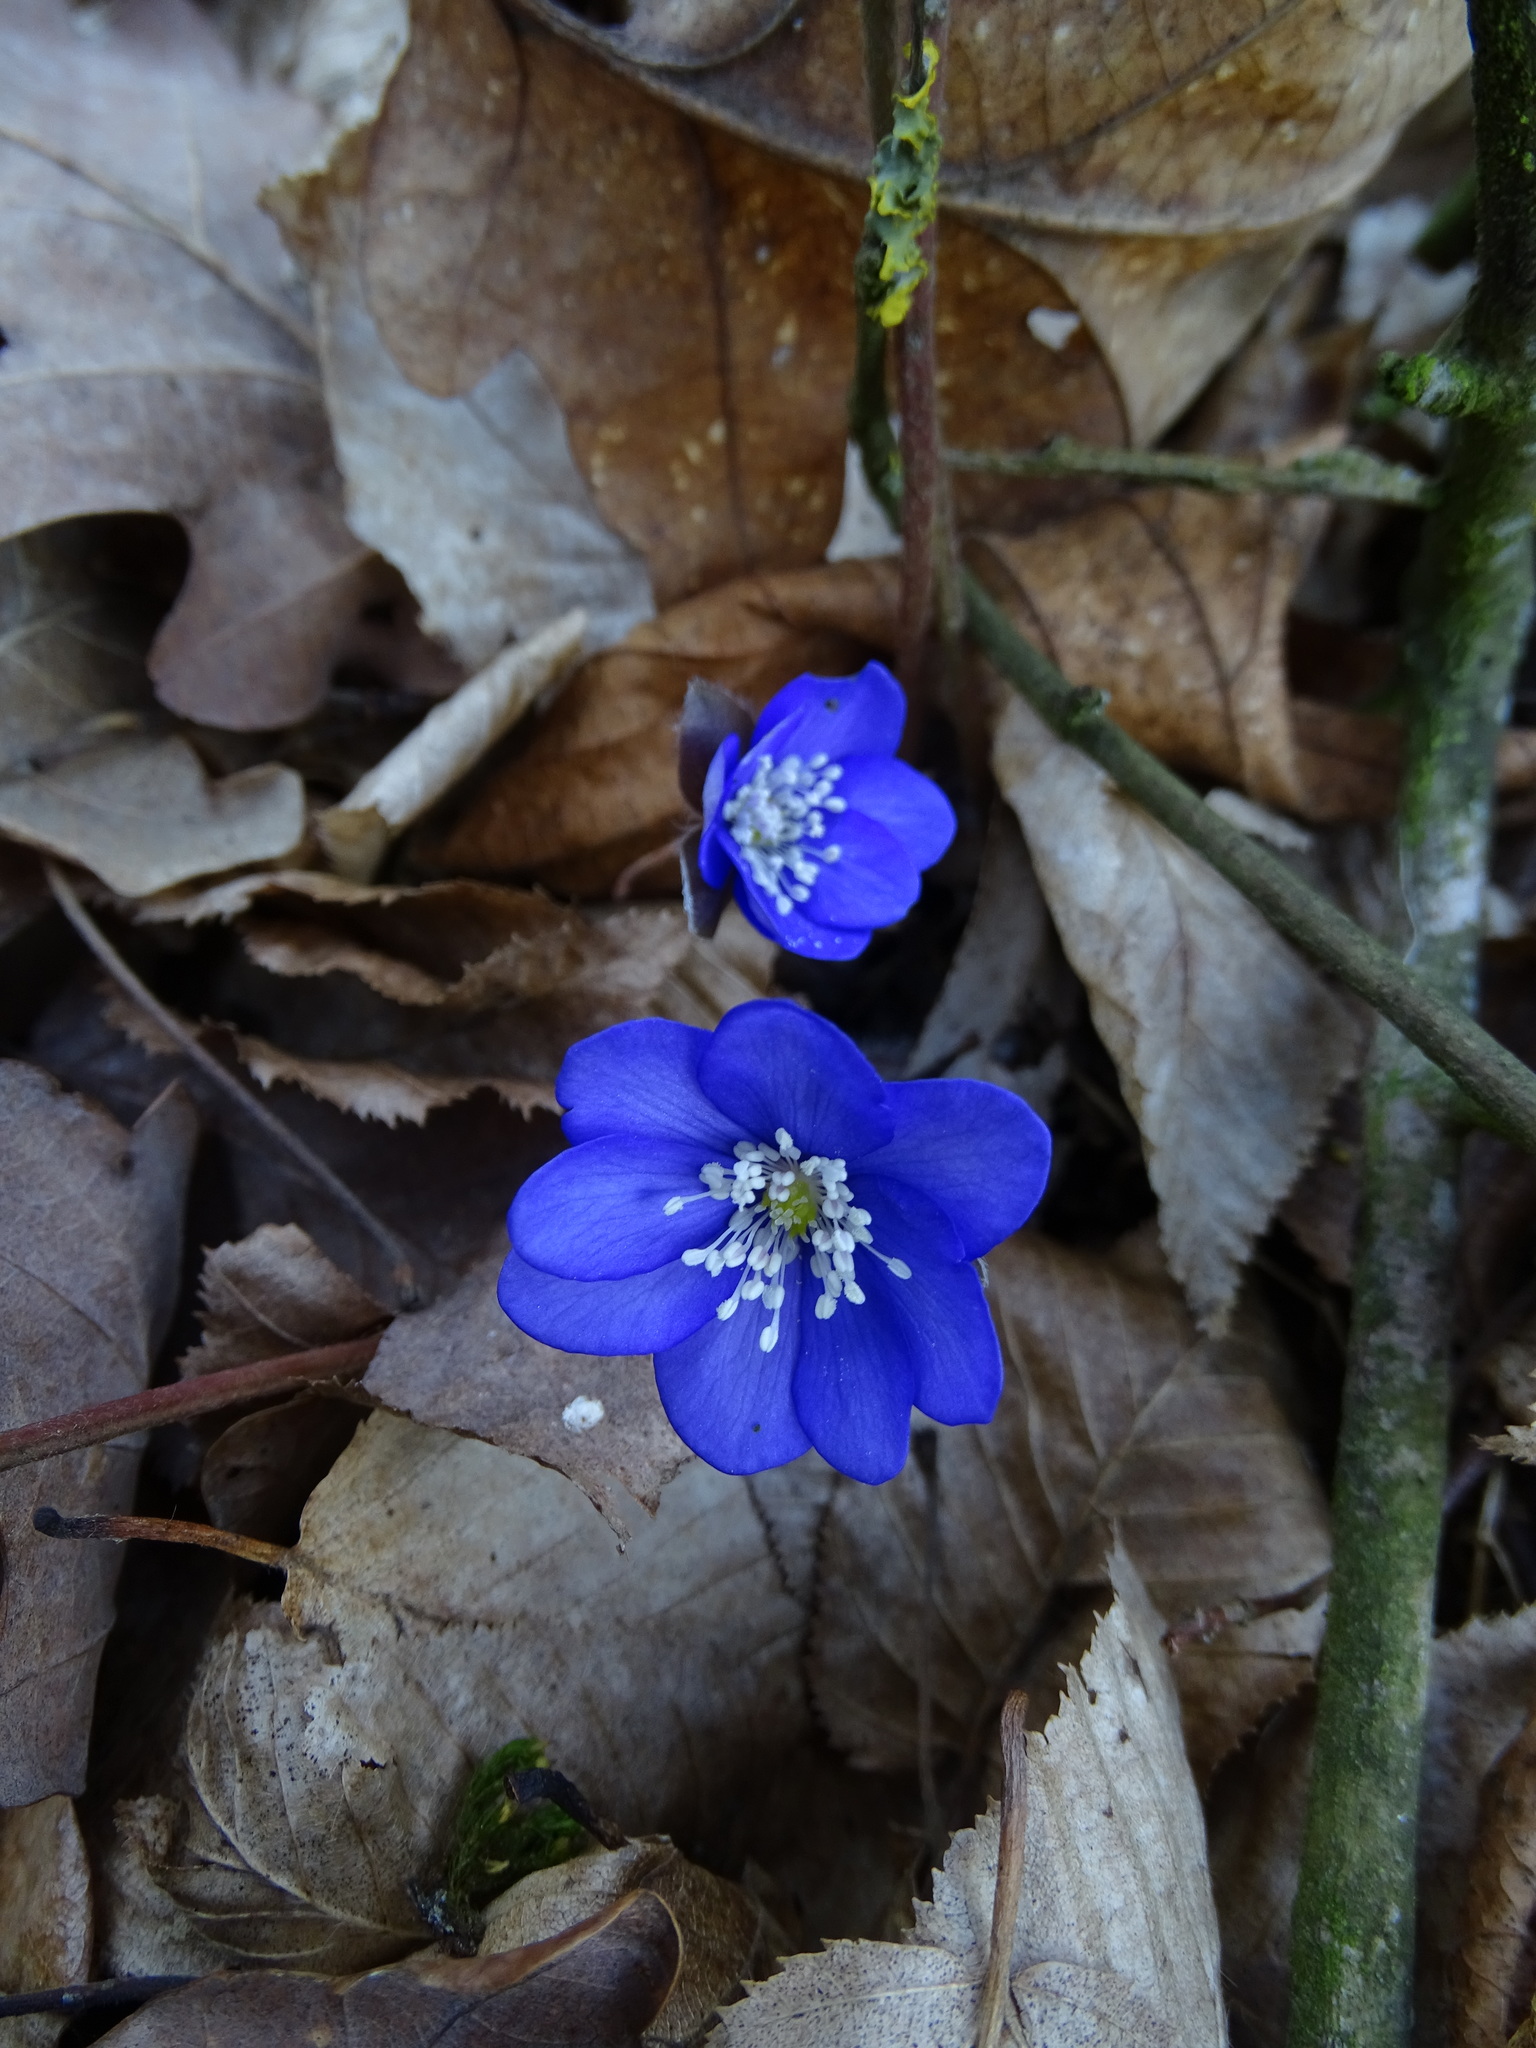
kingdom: Plantae
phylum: Tracheophyta
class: Magnoliopsida
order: Ranunculales
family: Ranunculaceae
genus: Hepatica
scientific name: Hepatica nobilis
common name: Liverleaf
